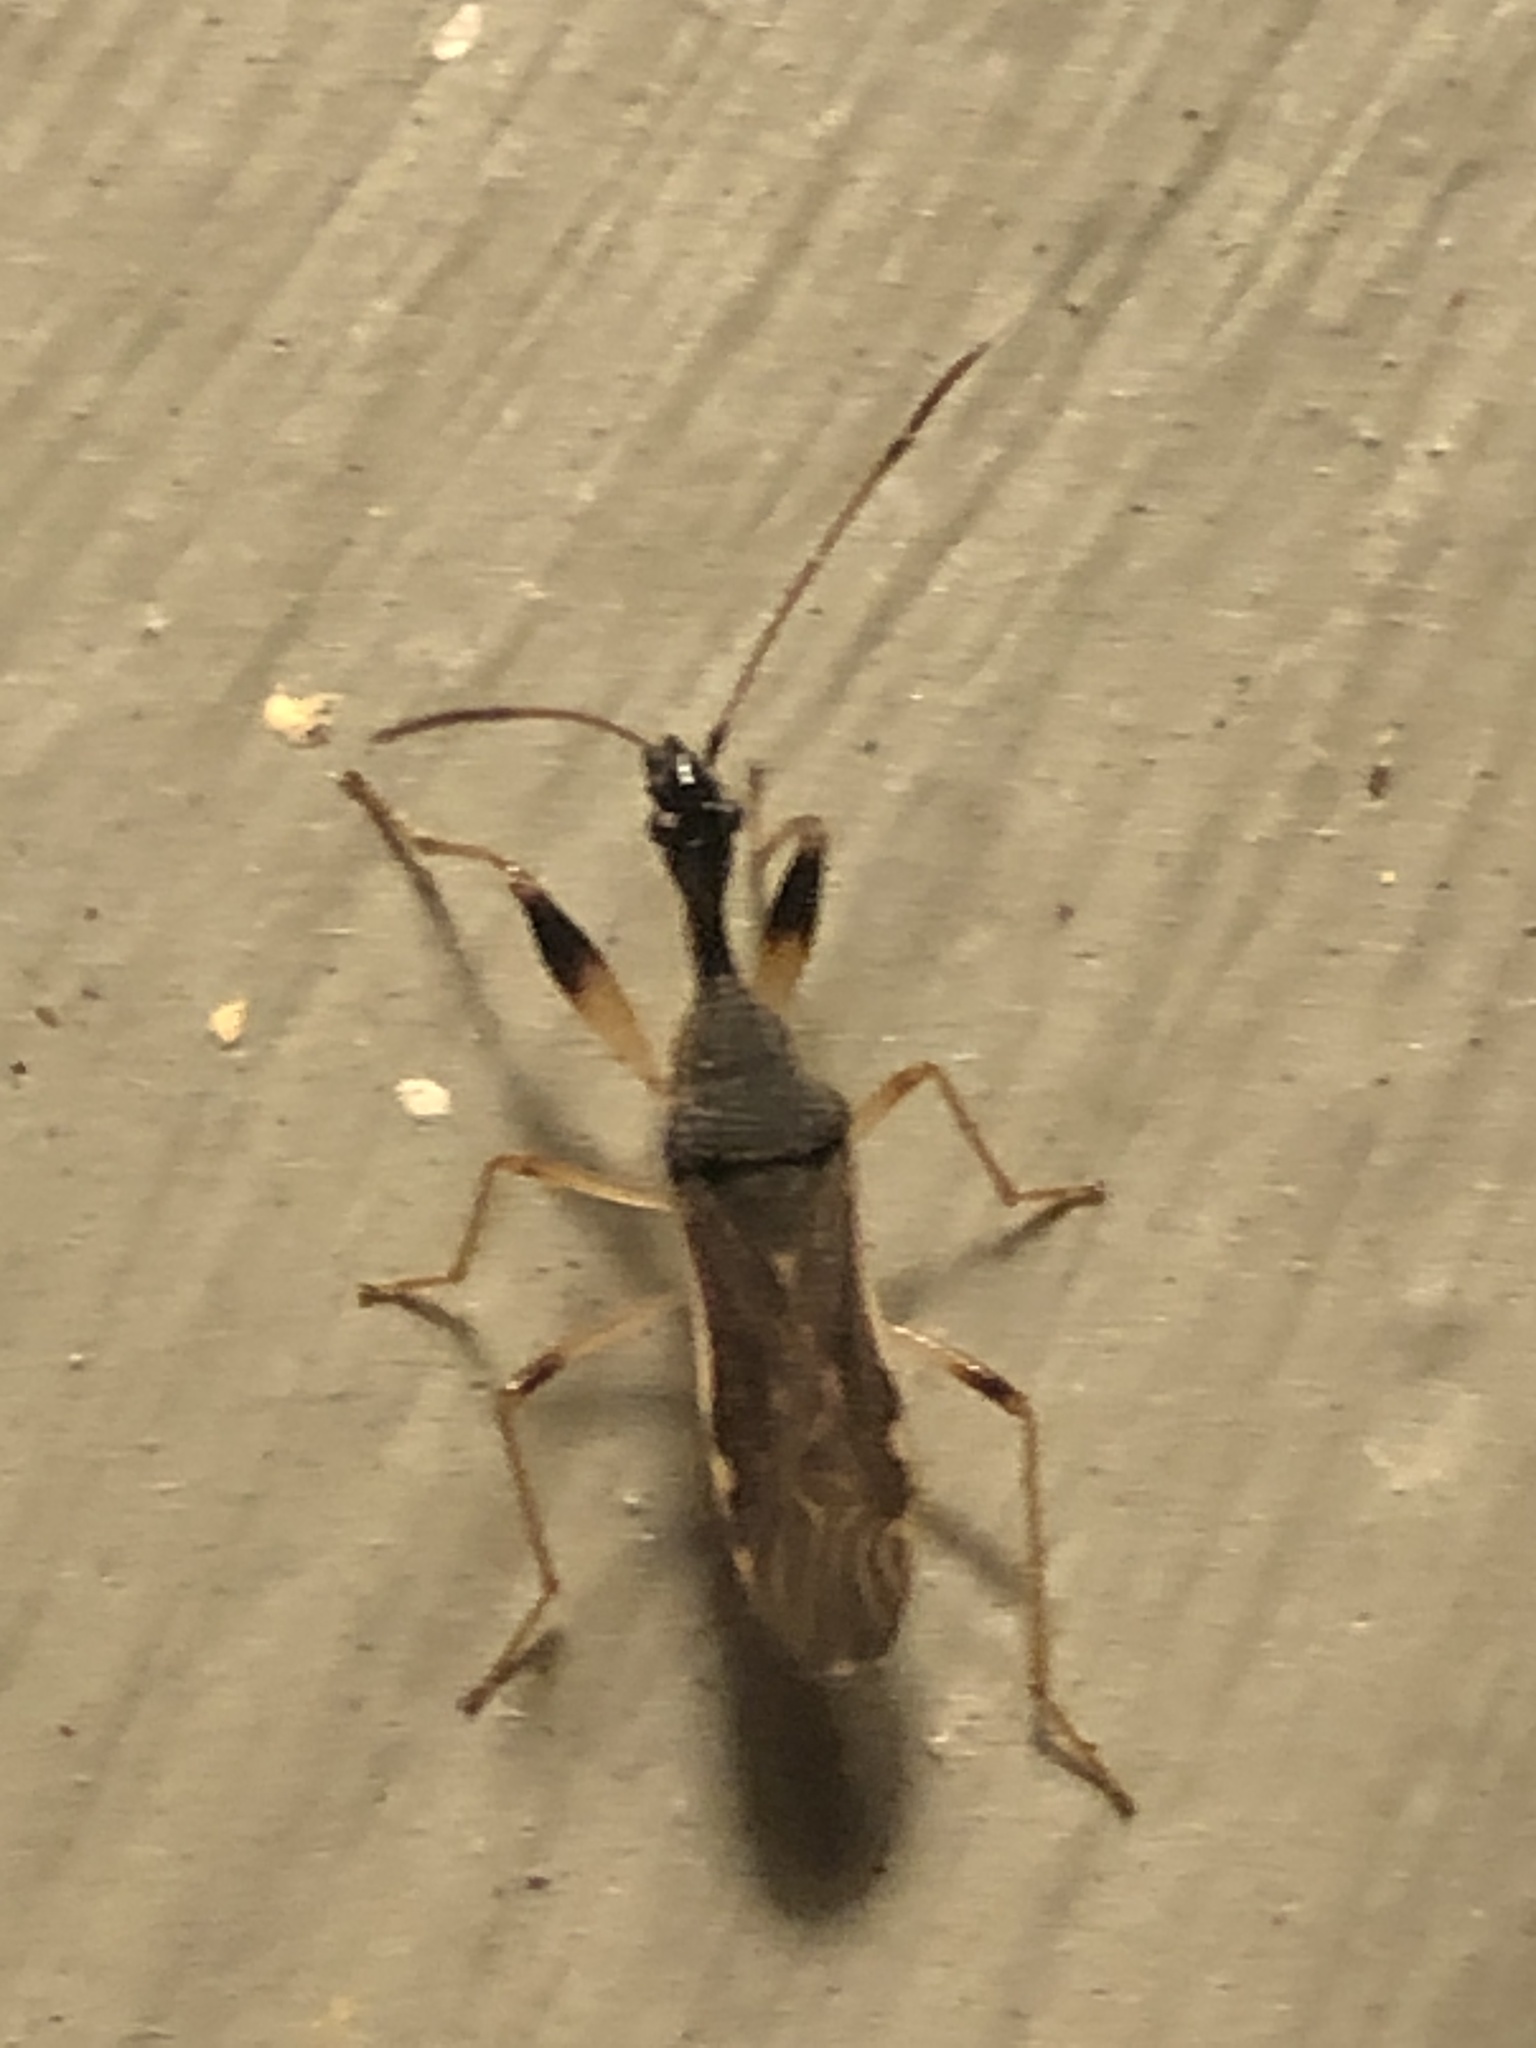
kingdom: Animalia
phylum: Arthropoda
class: Insecta
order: Hemiptera
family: Rhyparochromidae
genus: Myodocha
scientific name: Myodocha serripes
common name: Long-necked seed bug
